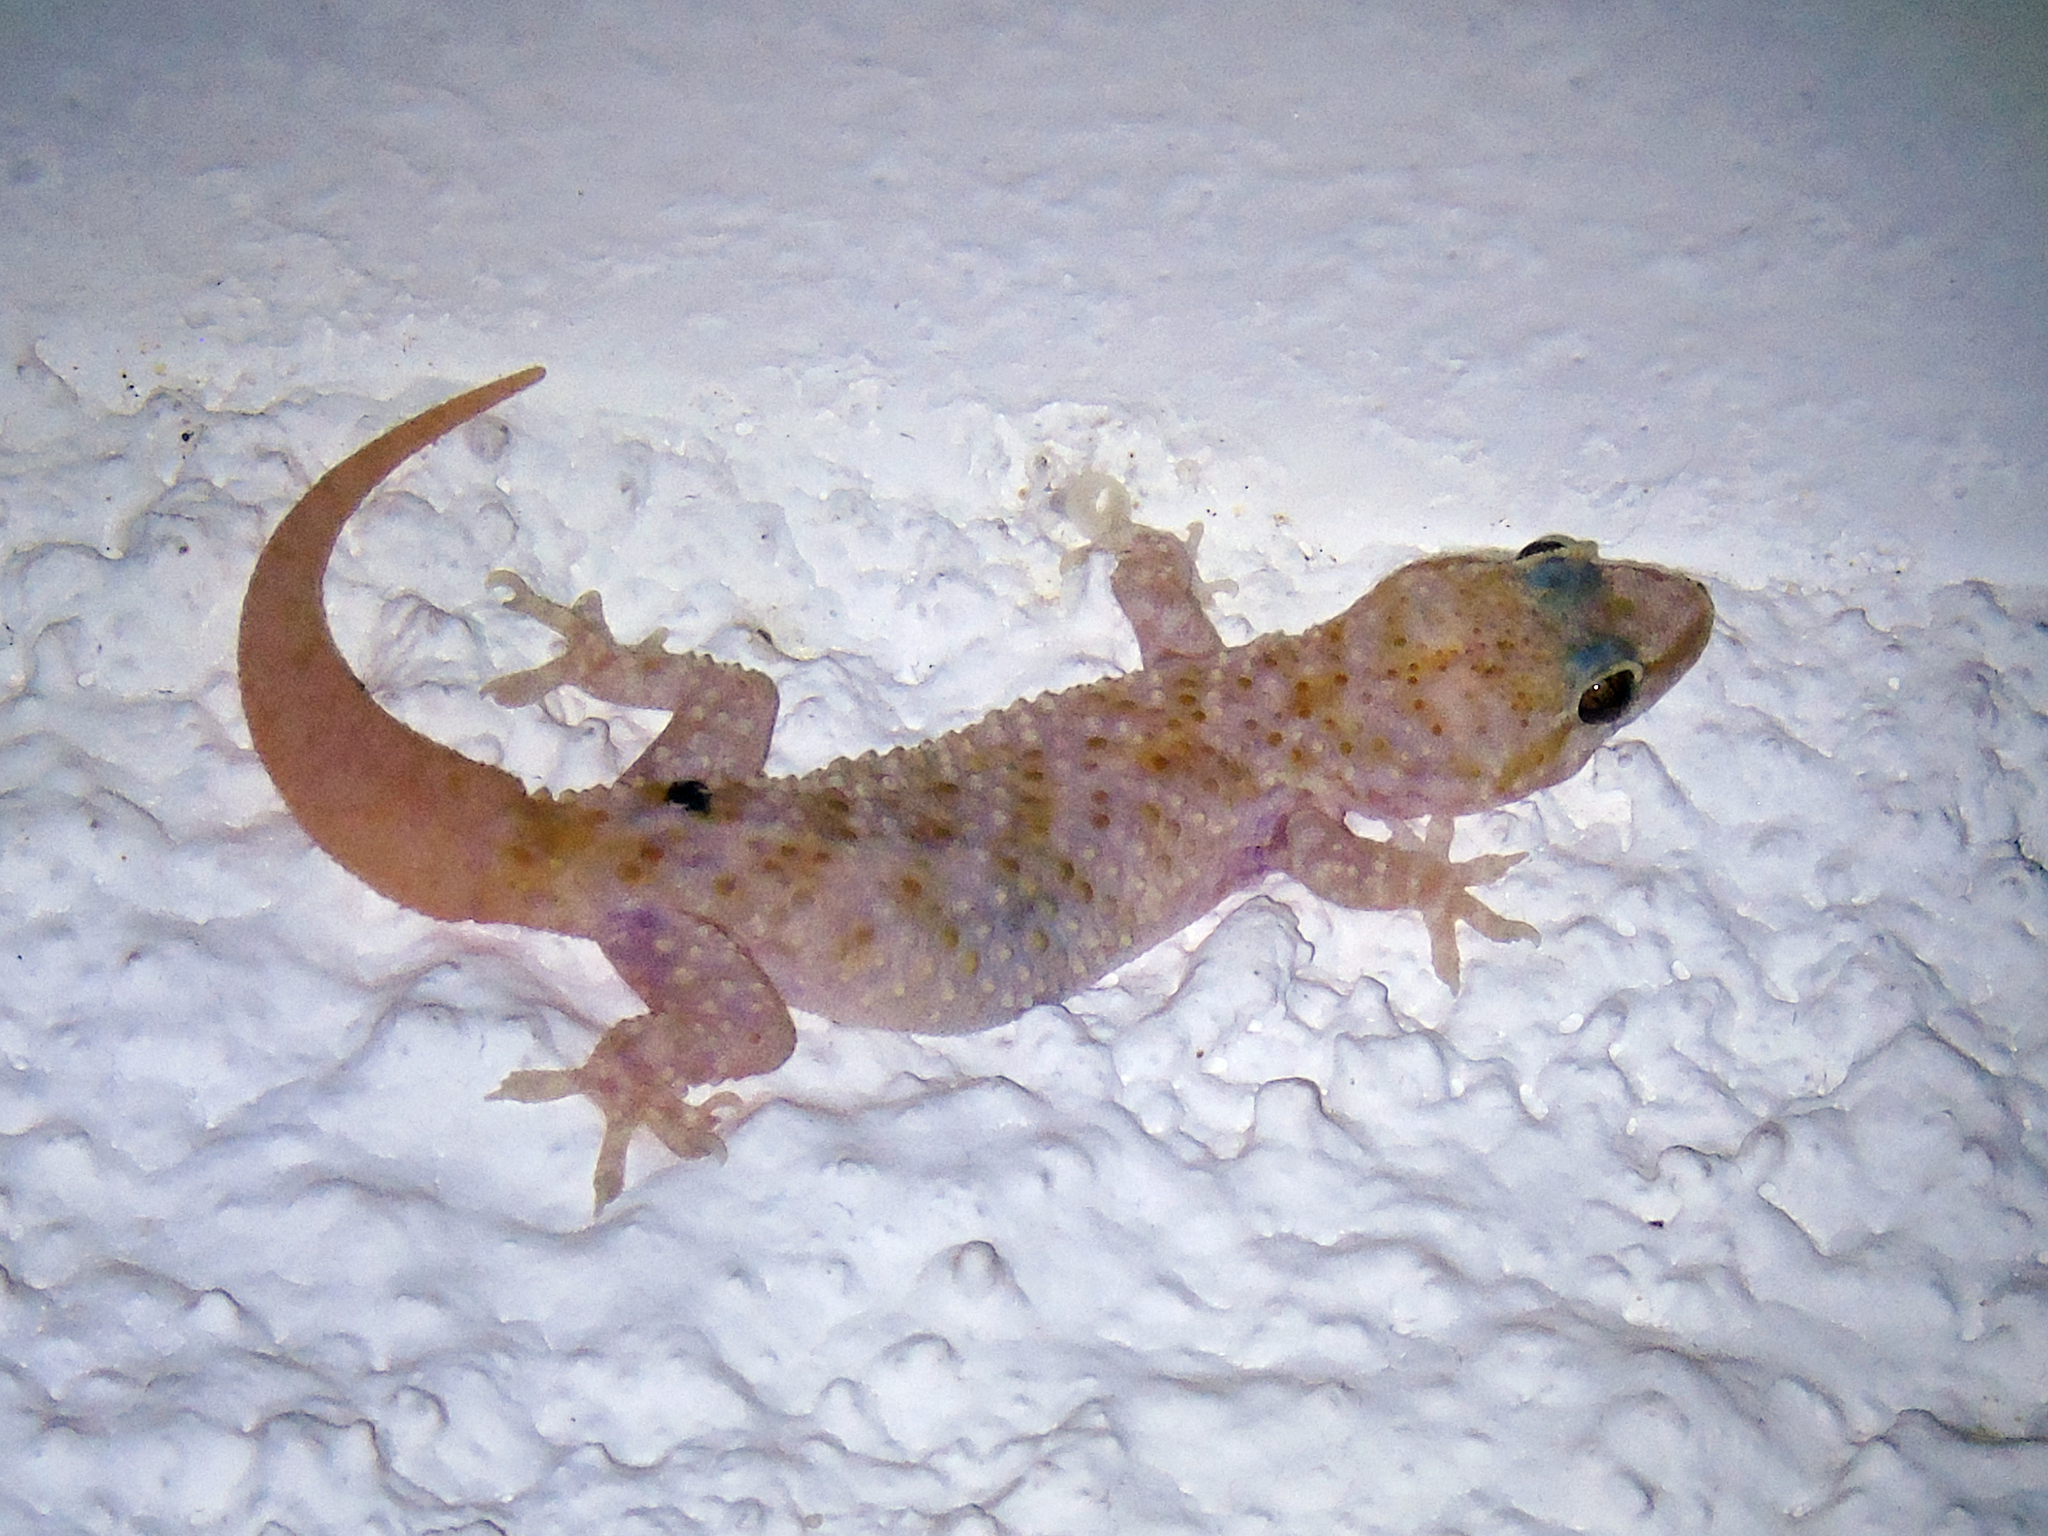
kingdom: Animalia
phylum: Chordata
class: Squamata
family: Gekkonidae
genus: Hemidactylus
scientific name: Hemidactylus turcicus
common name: Turkish gecko
